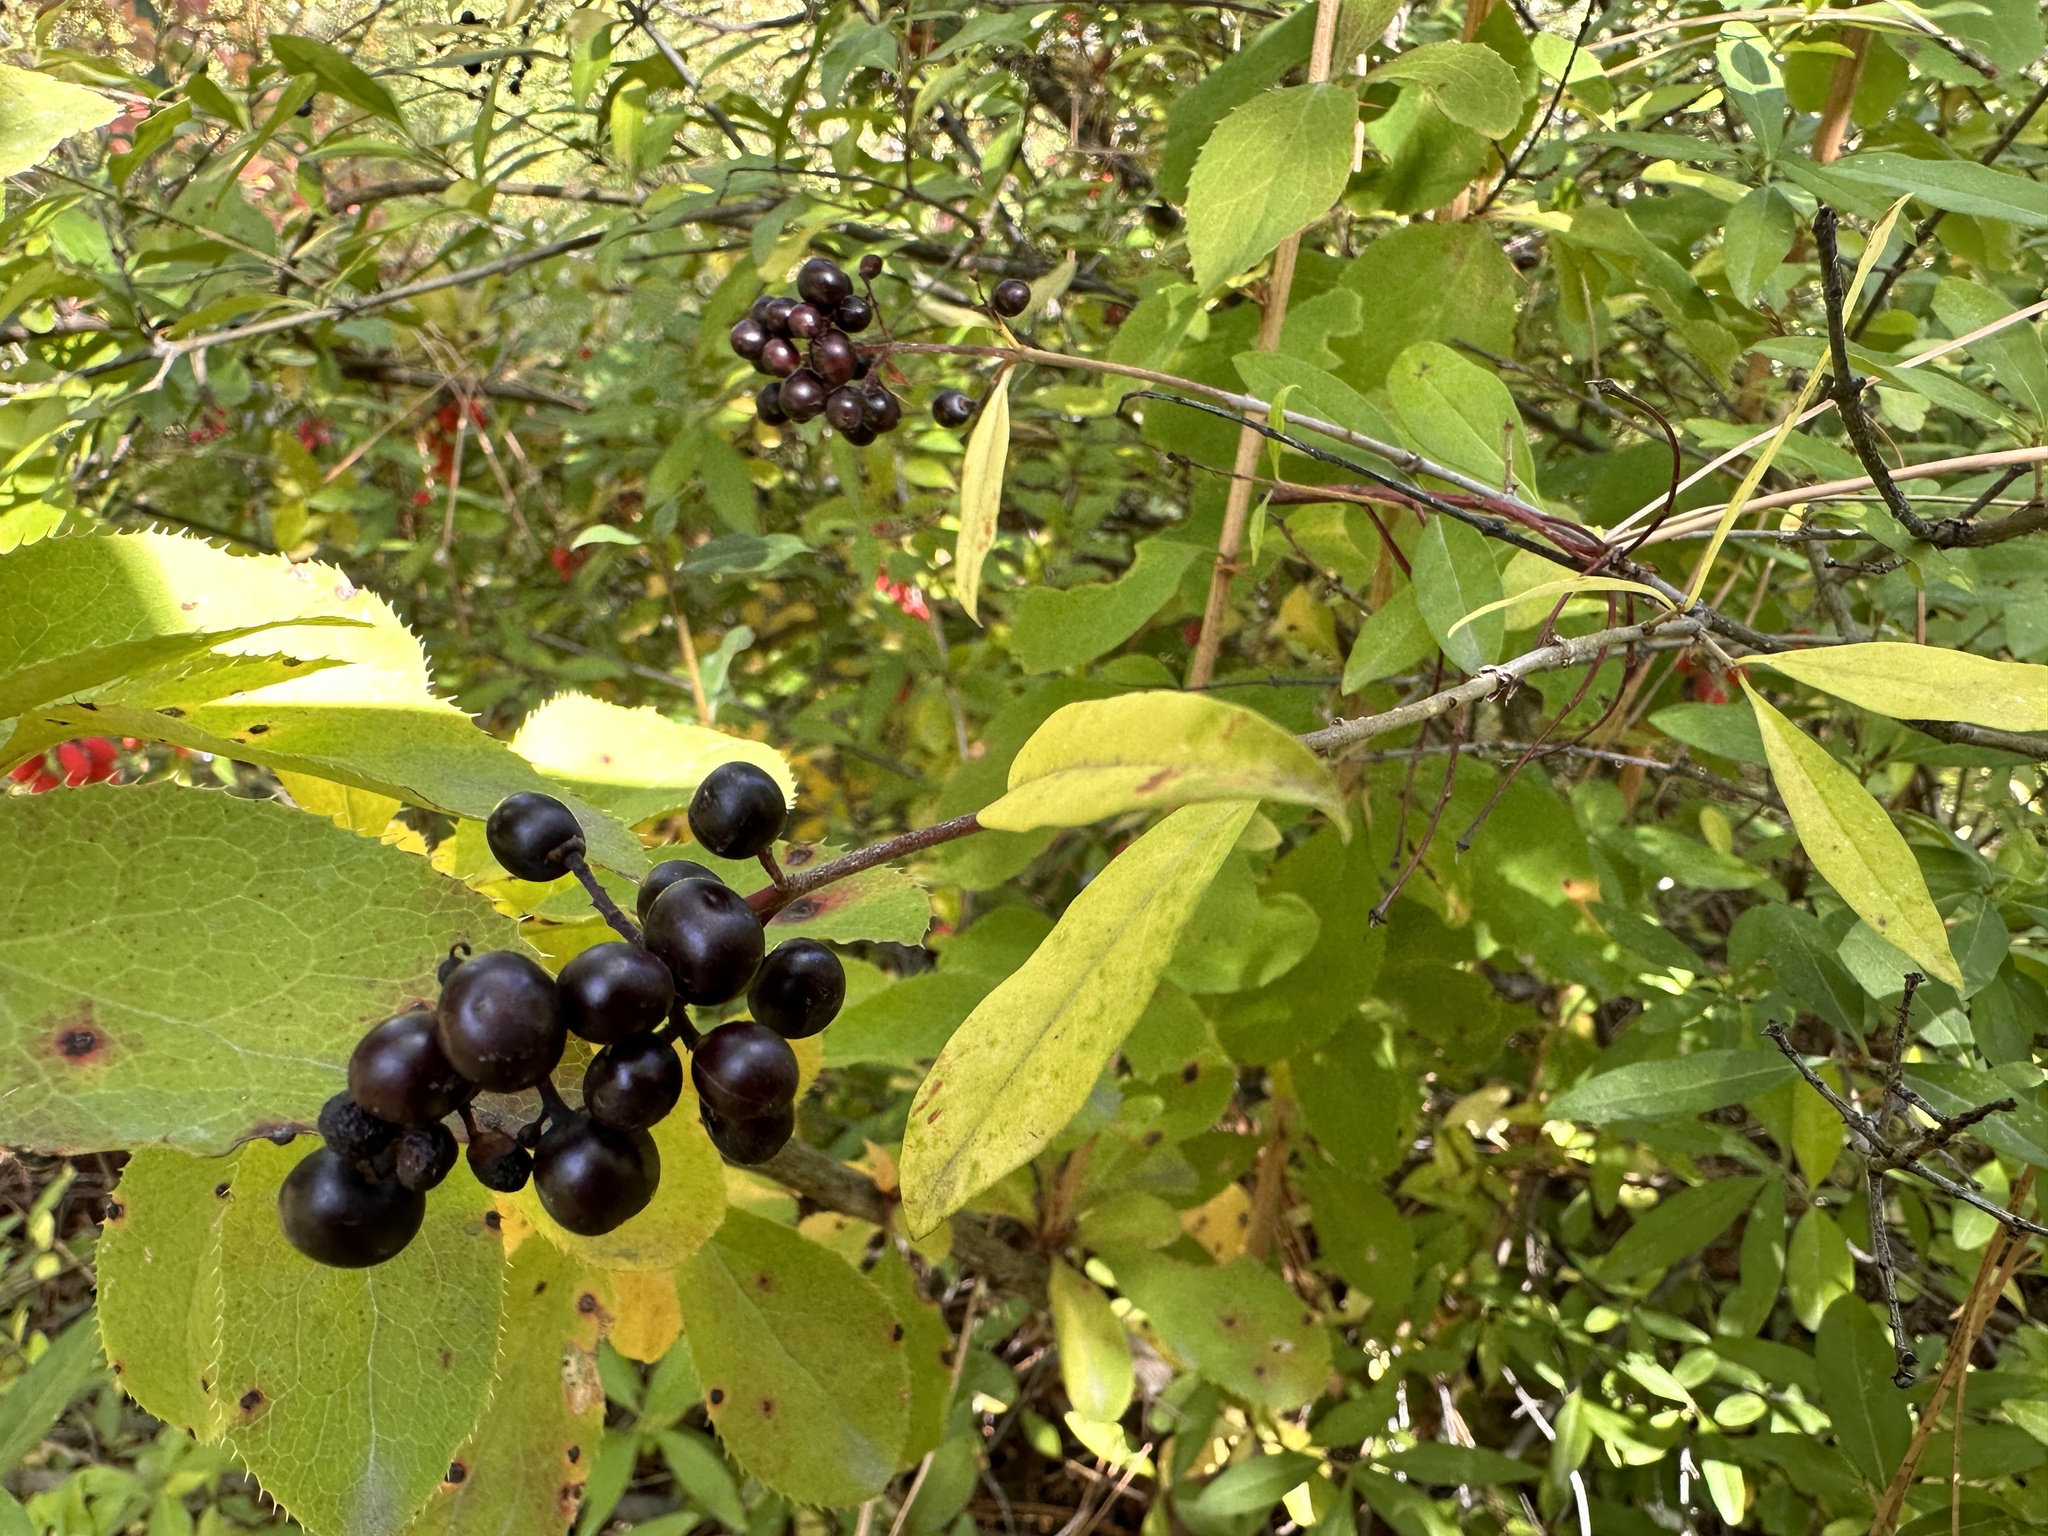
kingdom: Plantae
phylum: Tracheophyta
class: Magnoliopsida
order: Lamiales
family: Oleaceae
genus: Ligustrum
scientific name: Ligustrum vulgare
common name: Wild privet
